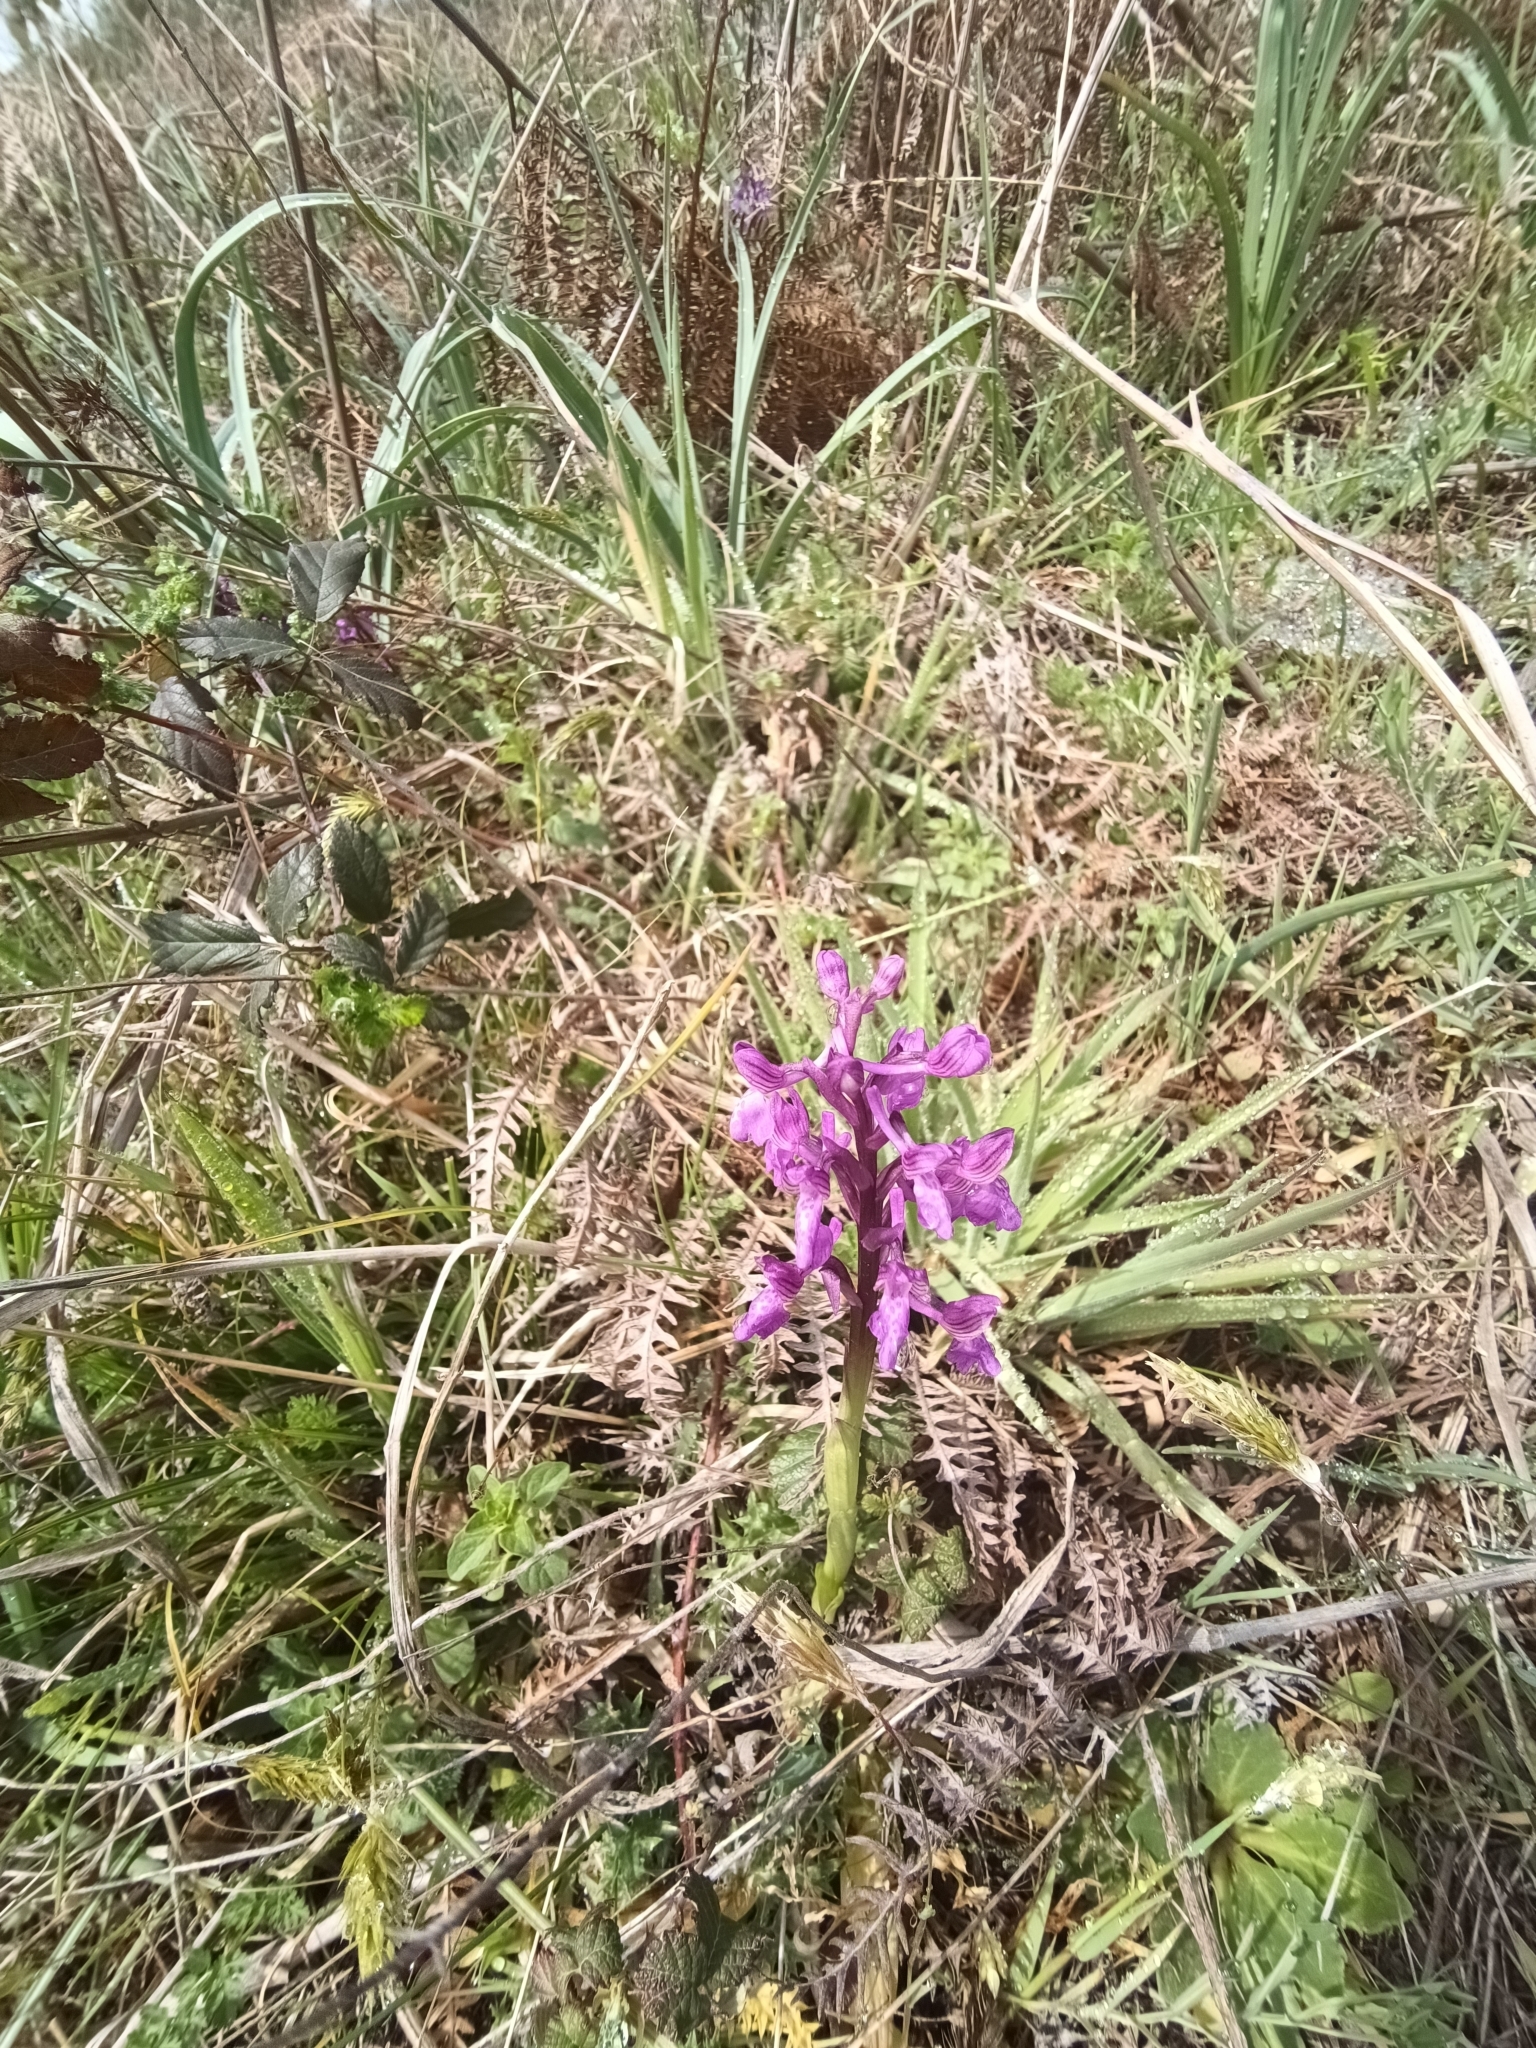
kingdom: Plantae
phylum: Tracheophyta
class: Liliopsida
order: Asparagales
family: Orchidaceae
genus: Anacamptis
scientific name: Anacamptis morio
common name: Green-winged orchid
